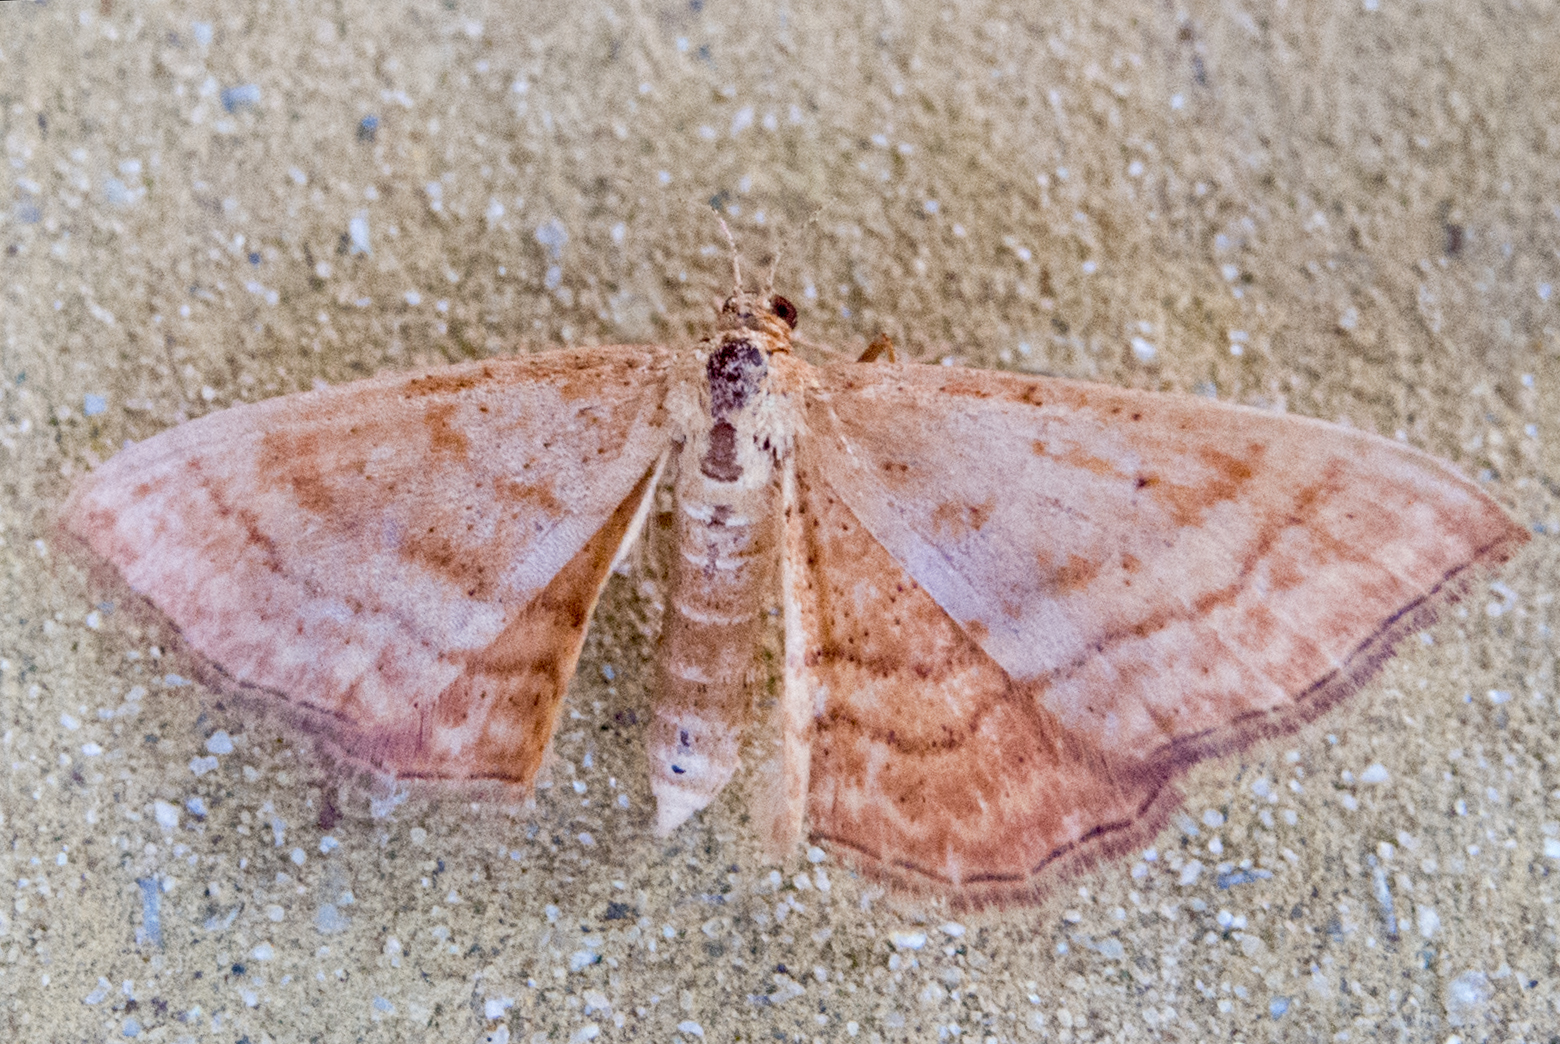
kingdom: Animalia
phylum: Arthropoda
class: Insecta
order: Lepidoptera
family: Geometridae
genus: Idaea
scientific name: Idaea ochrata
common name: Bright wave
